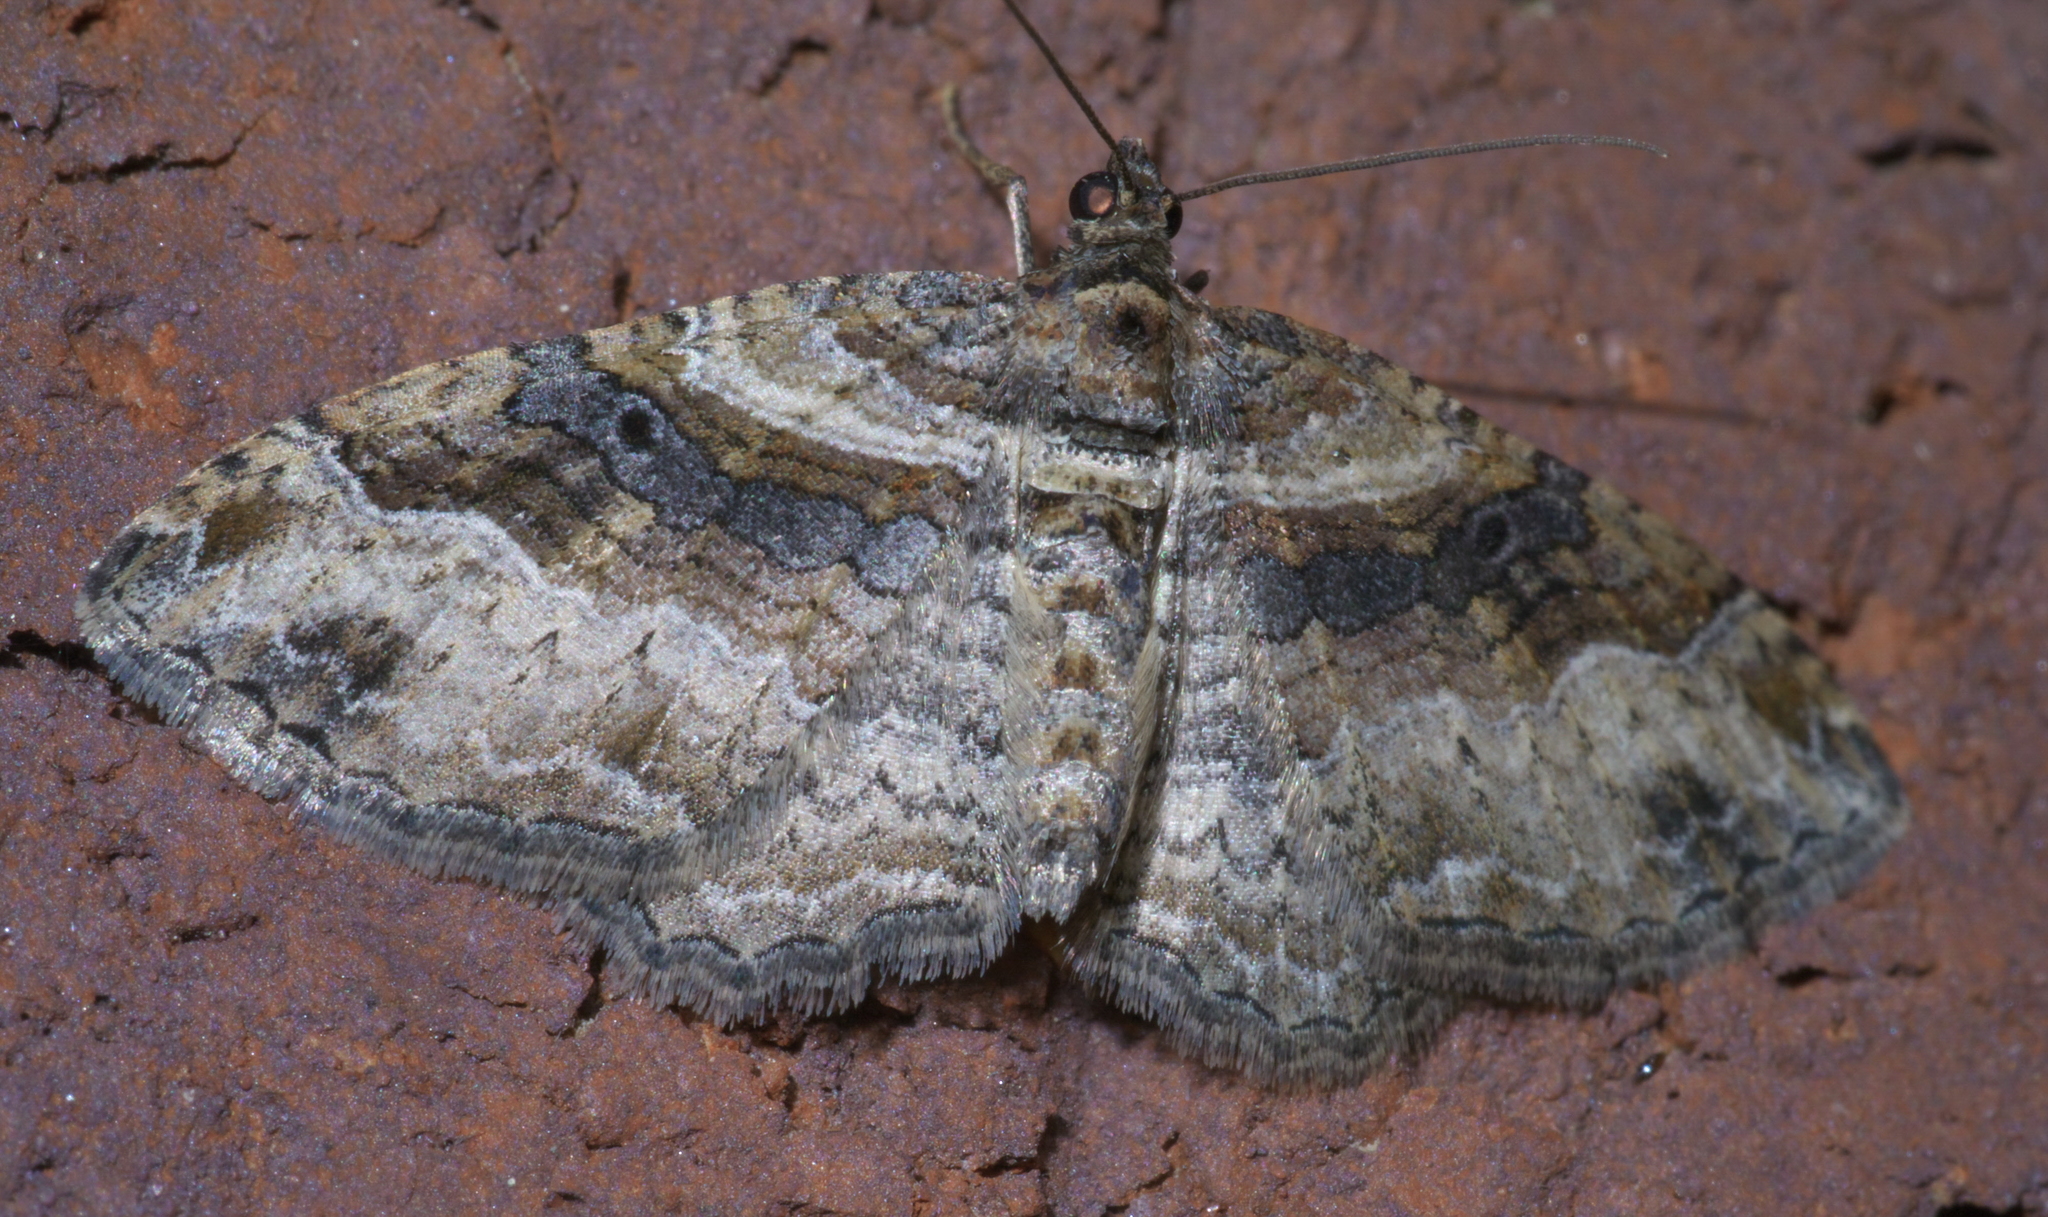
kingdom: Animalia
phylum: Arthropoda
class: Insecta
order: Lepidoptera
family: Geometridae
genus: Costaconvexa
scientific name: Costaconvexa centrostrigaria
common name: Bent-line carpet
